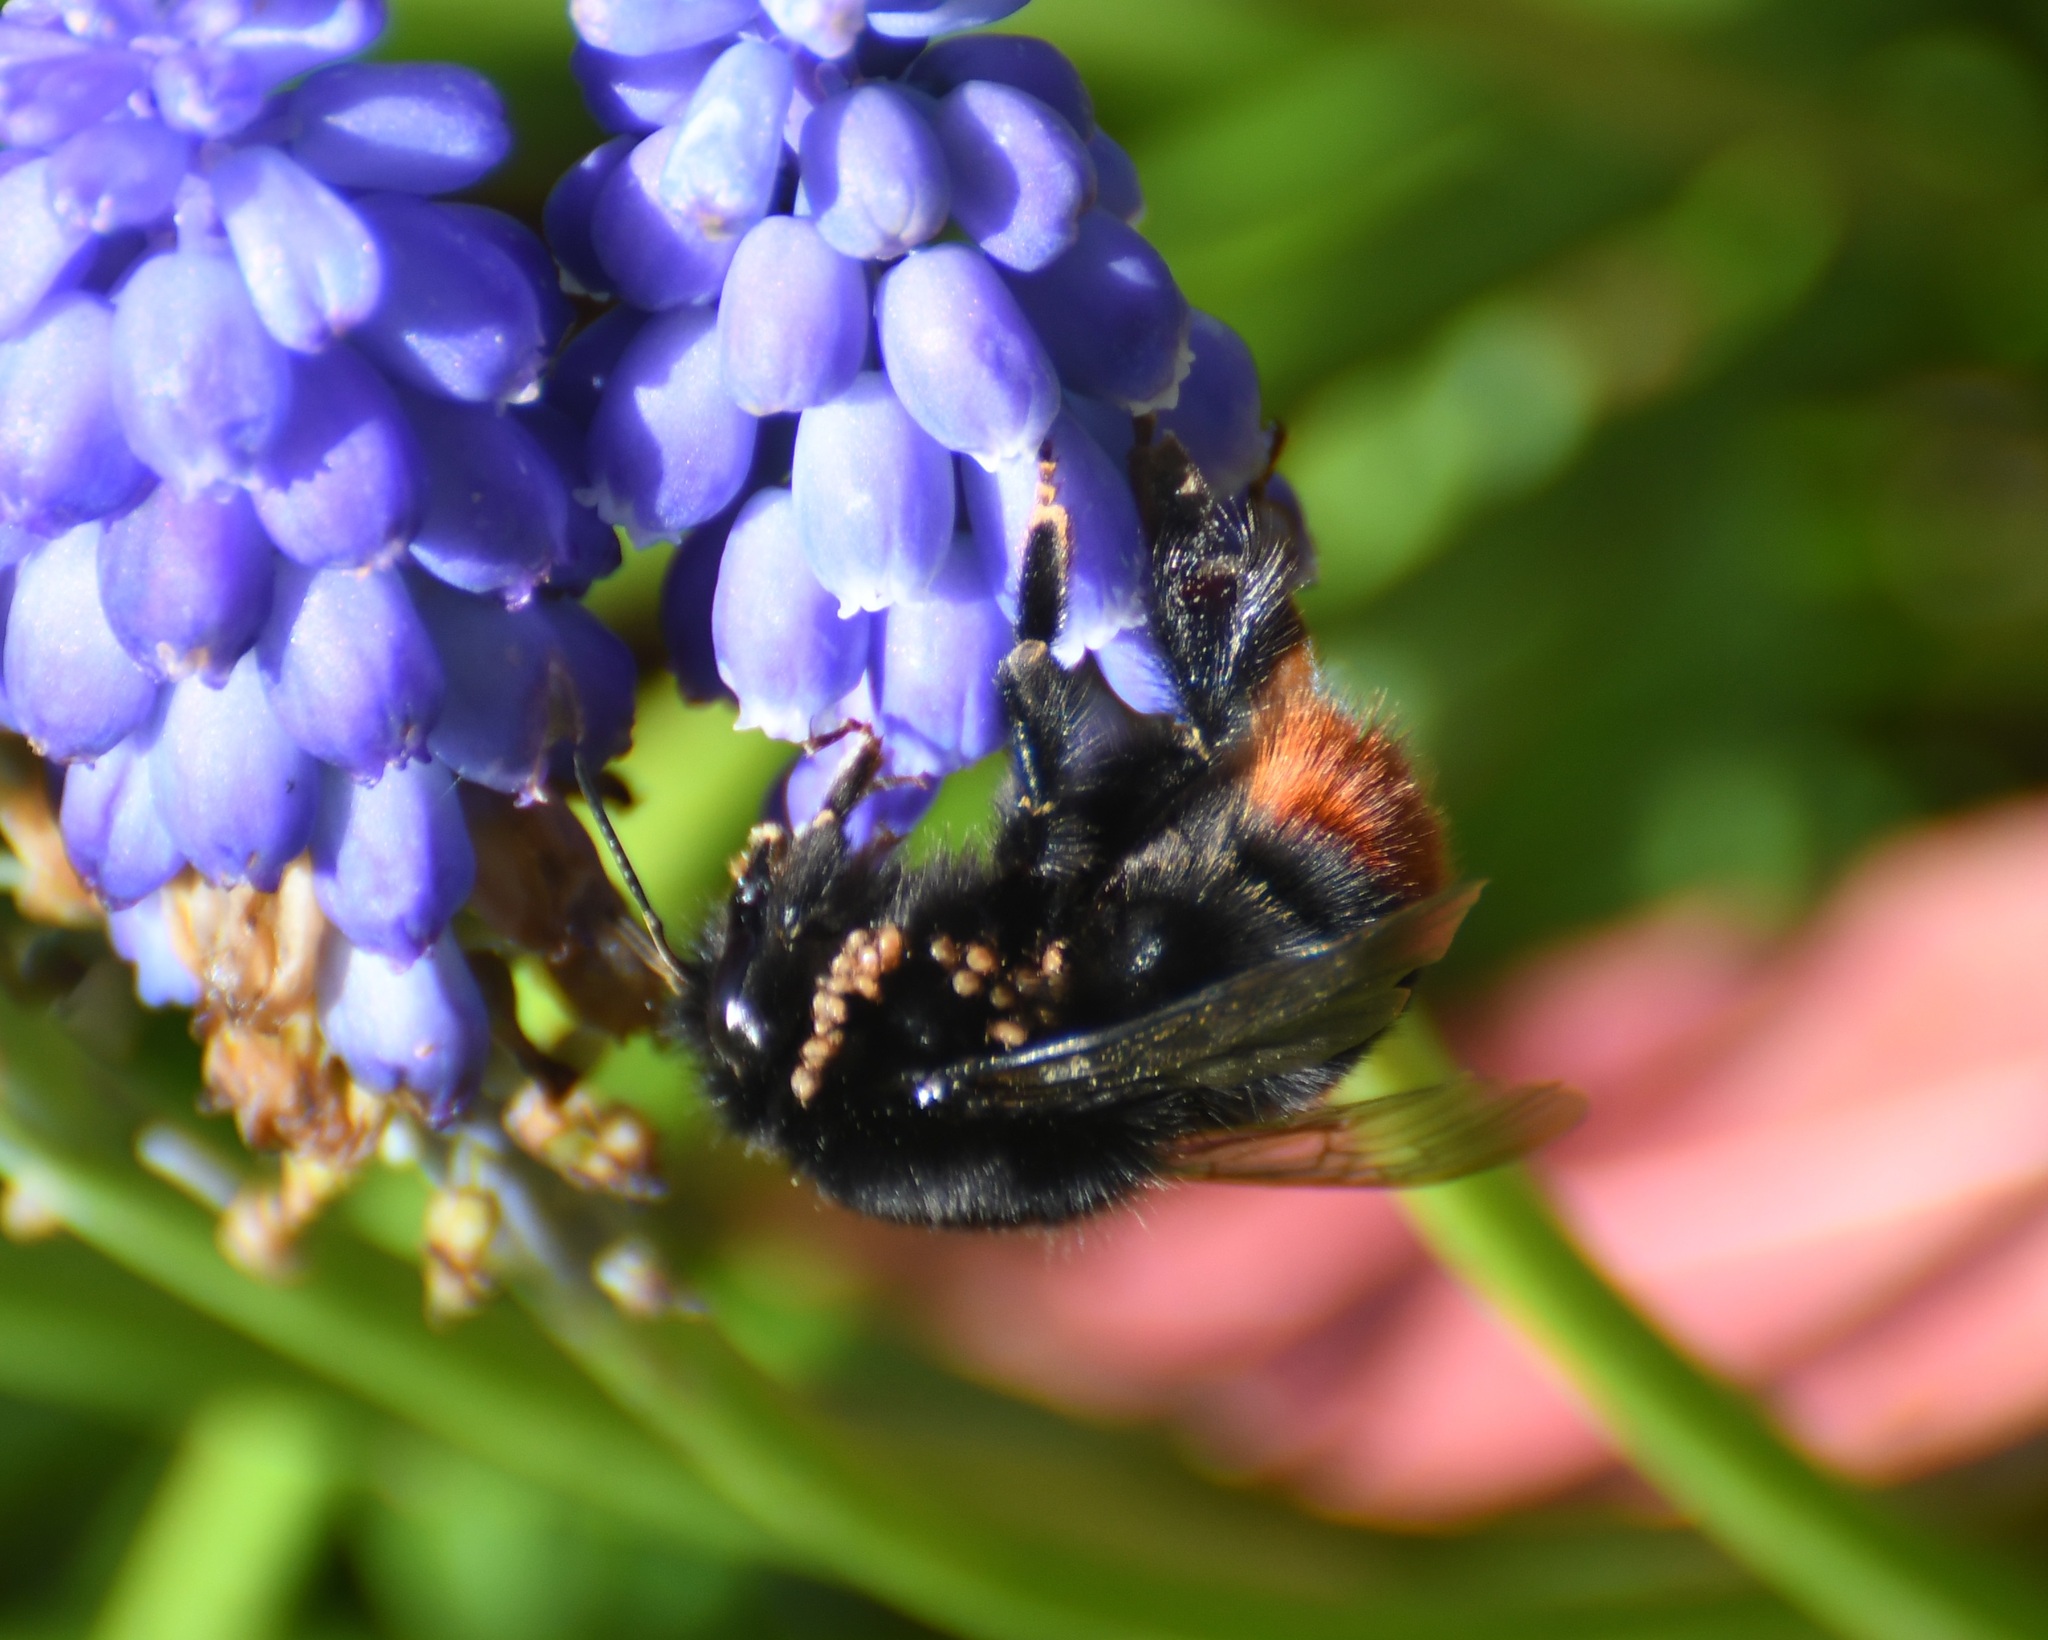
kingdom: Animalia
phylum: Arthropoda
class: Insecta
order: Hymenoptera
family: Apidae
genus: Bombus
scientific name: Bombus lapidarius
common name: Large red-tailed humble-bee
